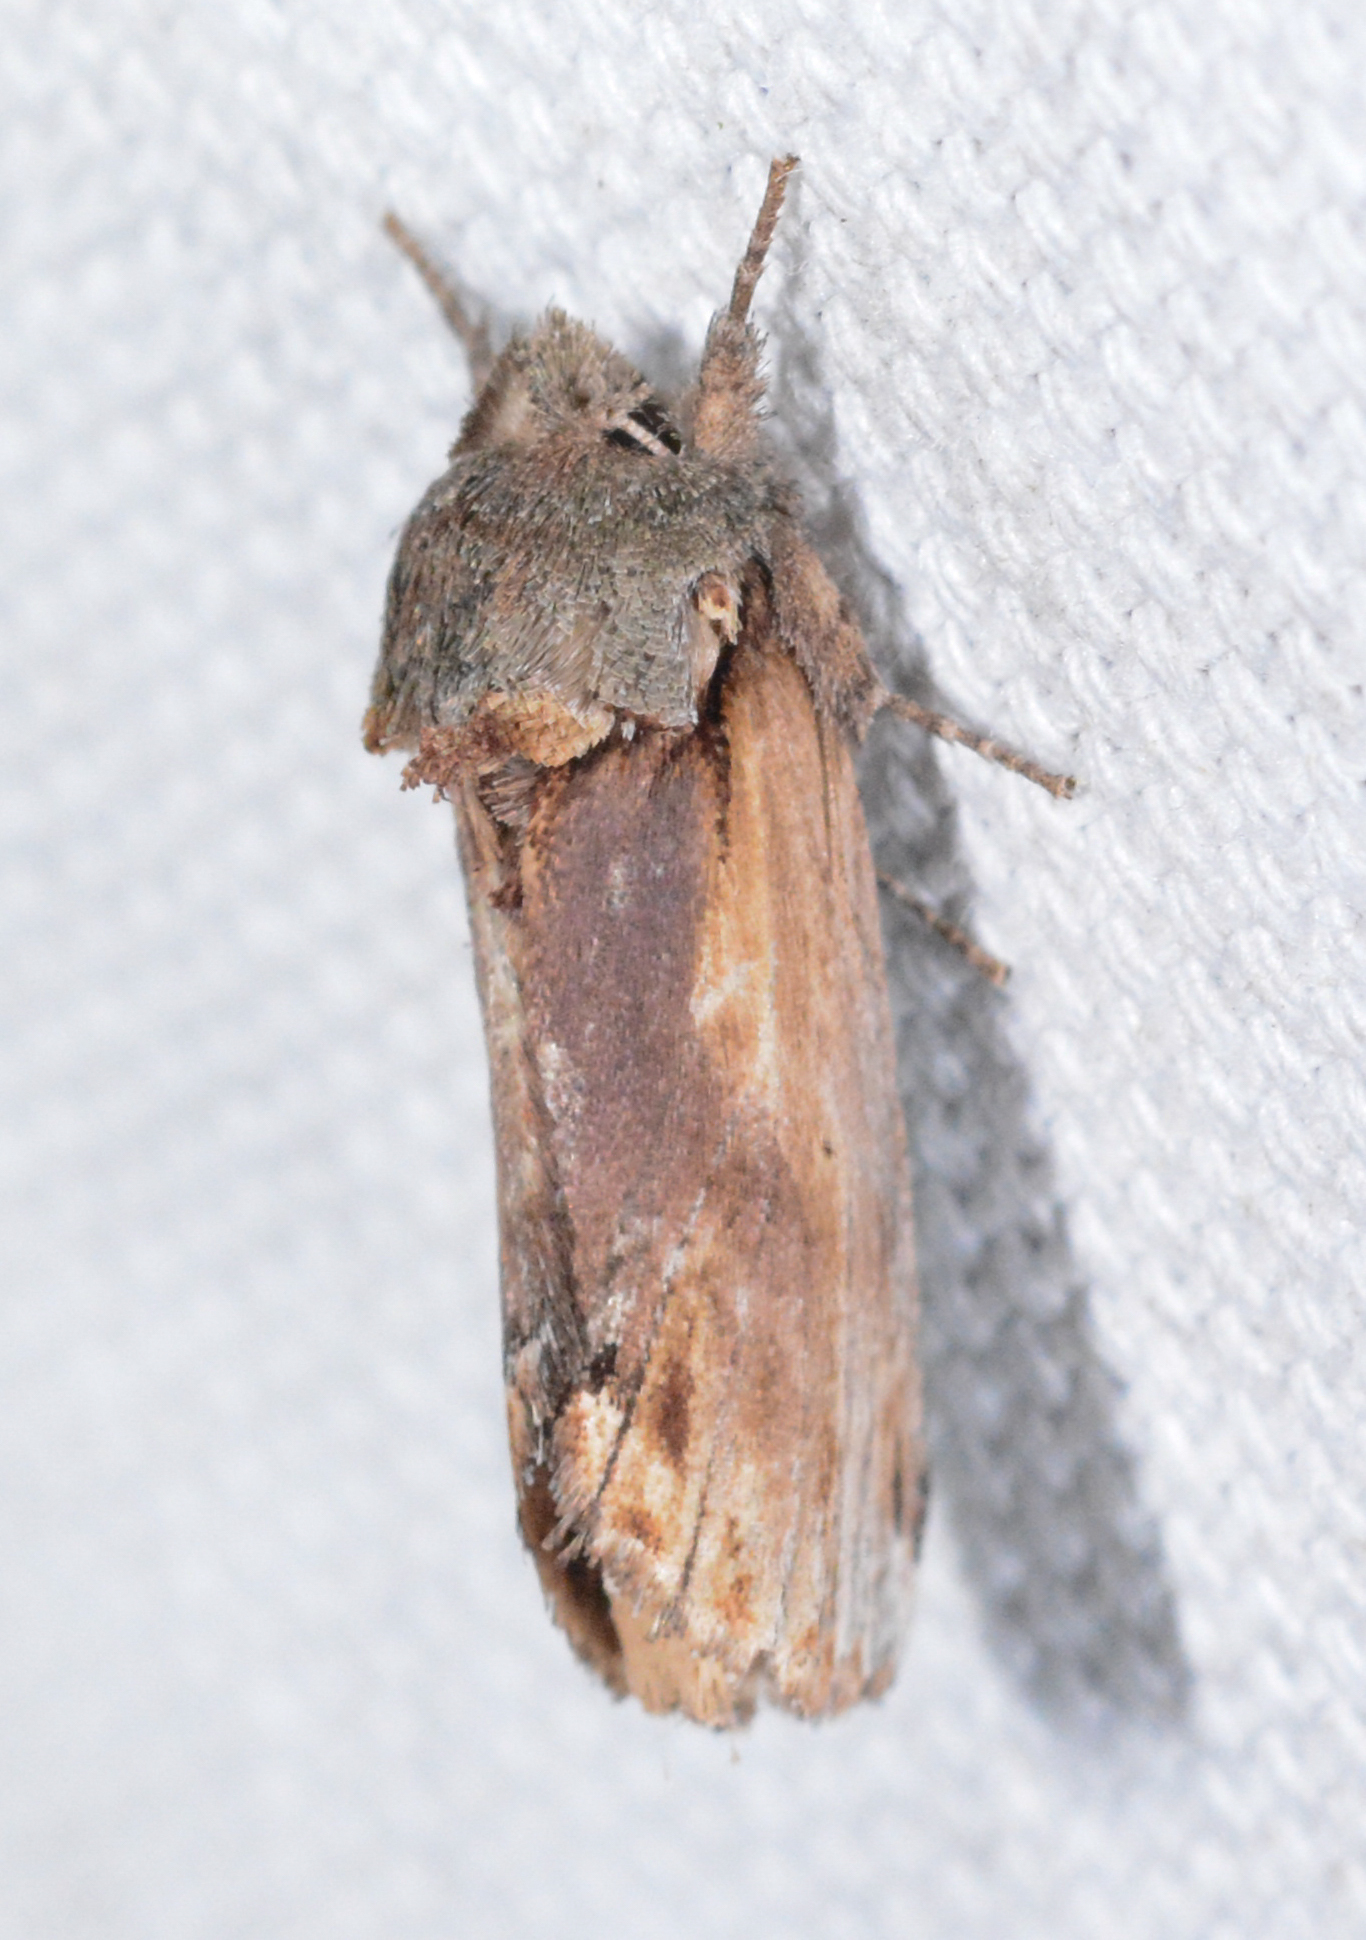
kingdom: Animalia
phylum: Arthropoda
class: Insecta
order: Lepidoptera
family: Notodontidae
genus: Schizura
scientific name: Schizura
